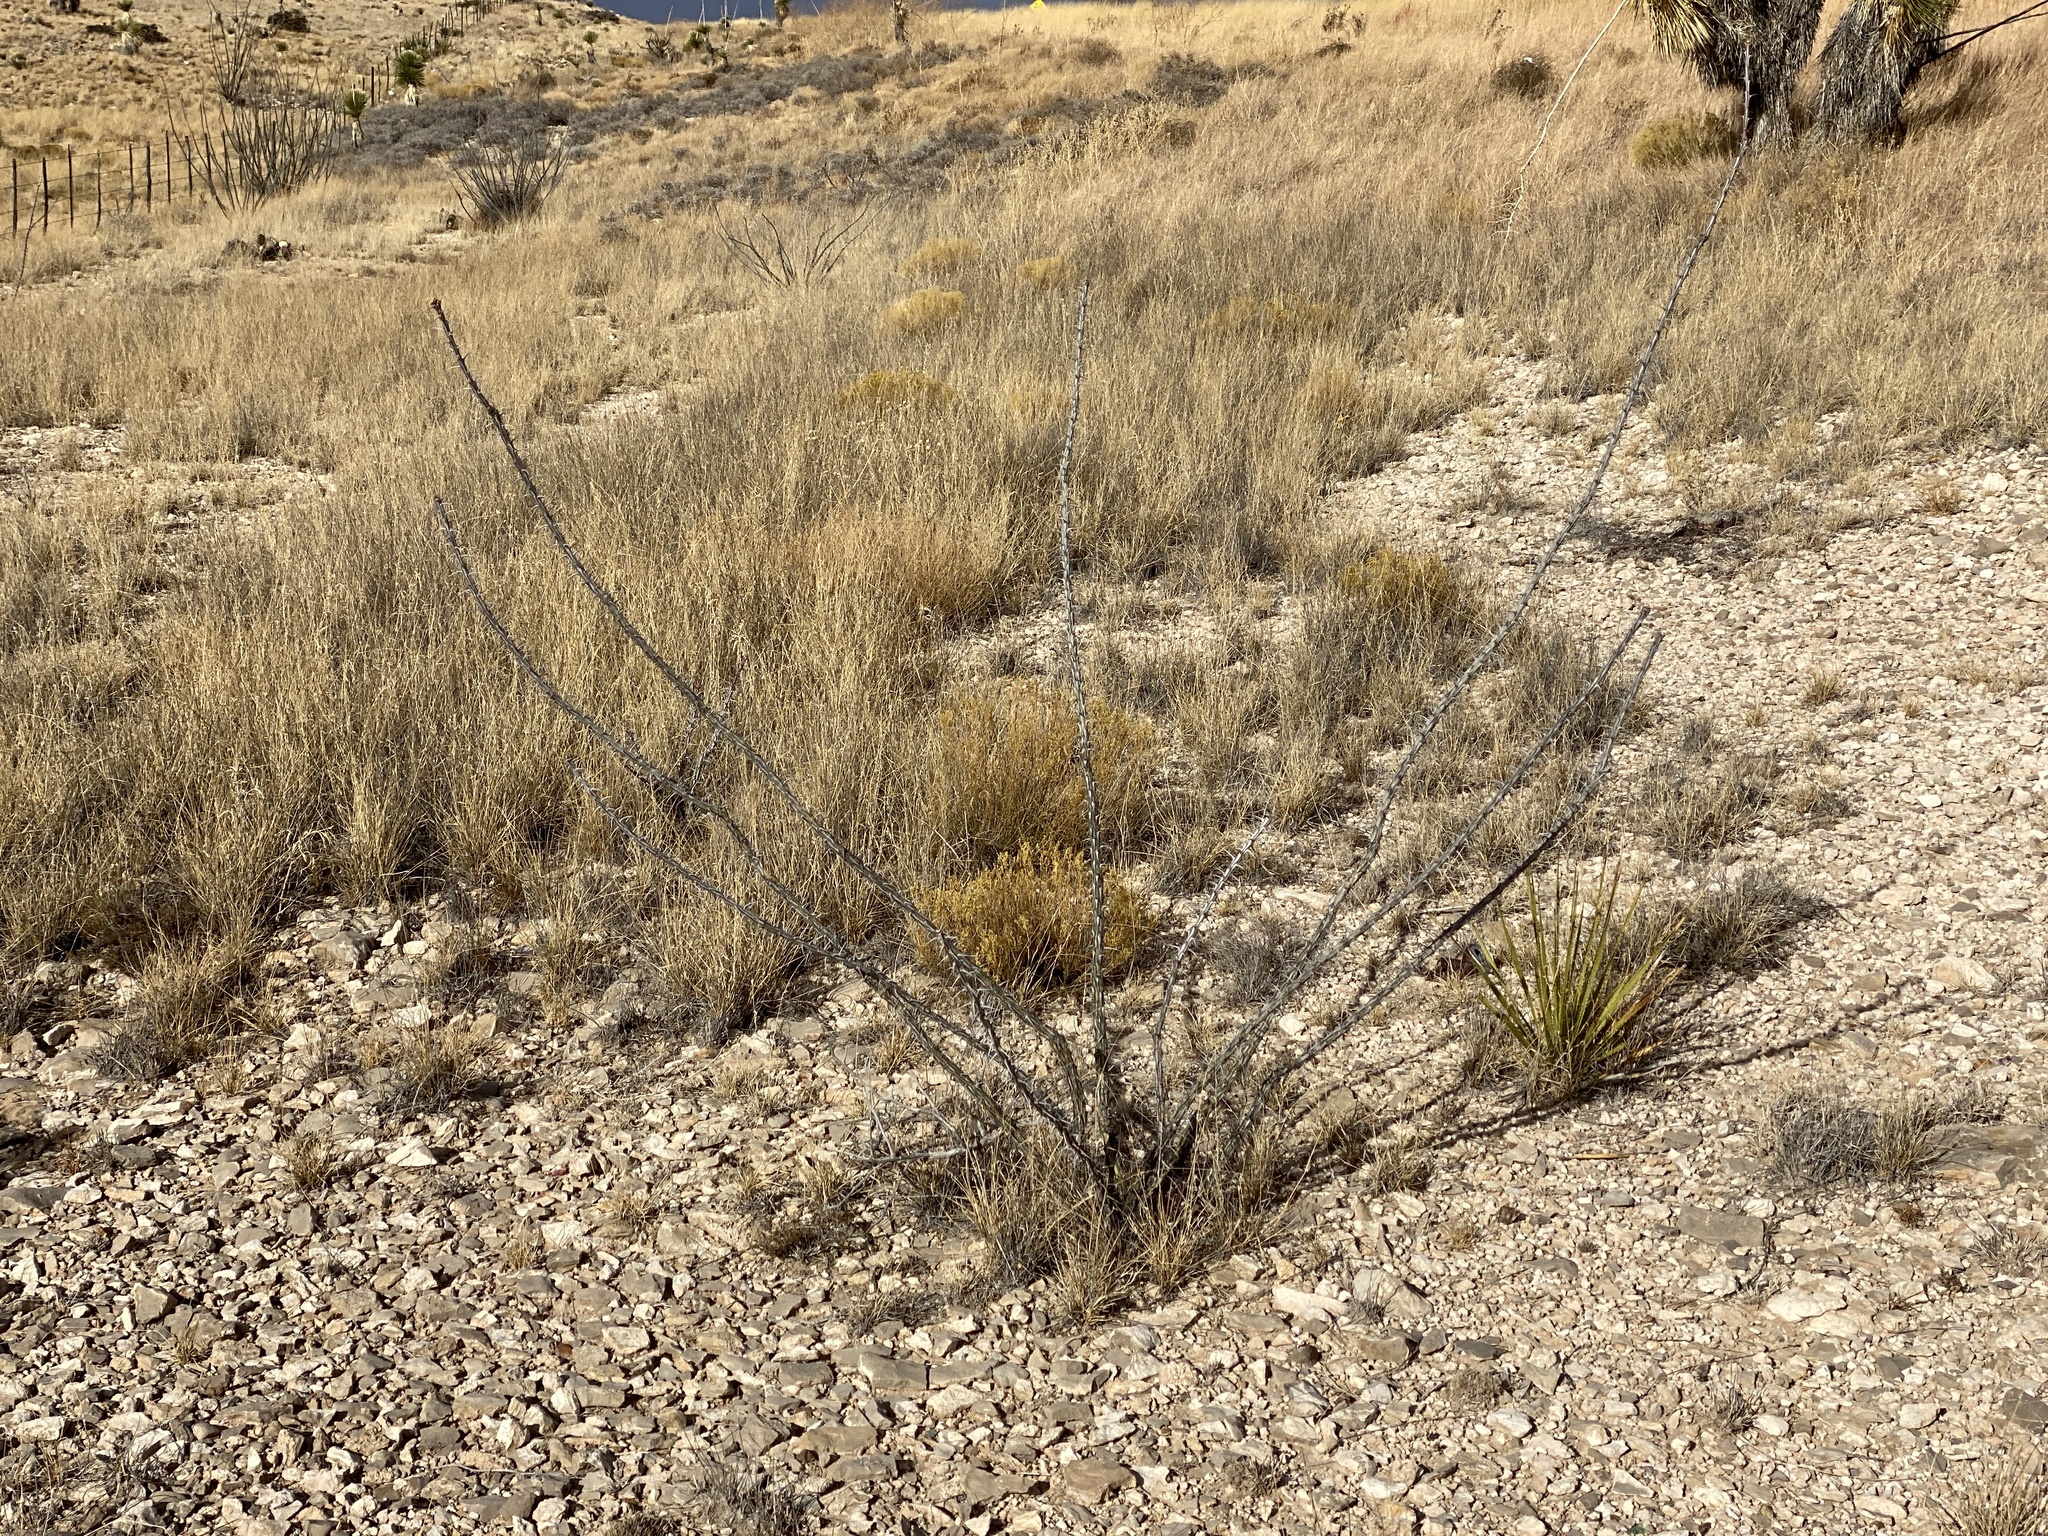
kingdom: Plantae
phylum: Tracheophyta
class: Magnoliopsida
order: Ericales
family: Fouquieriaceae
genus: Fouquieria
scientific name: Fouquieria splendens
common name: Vine-cactus
